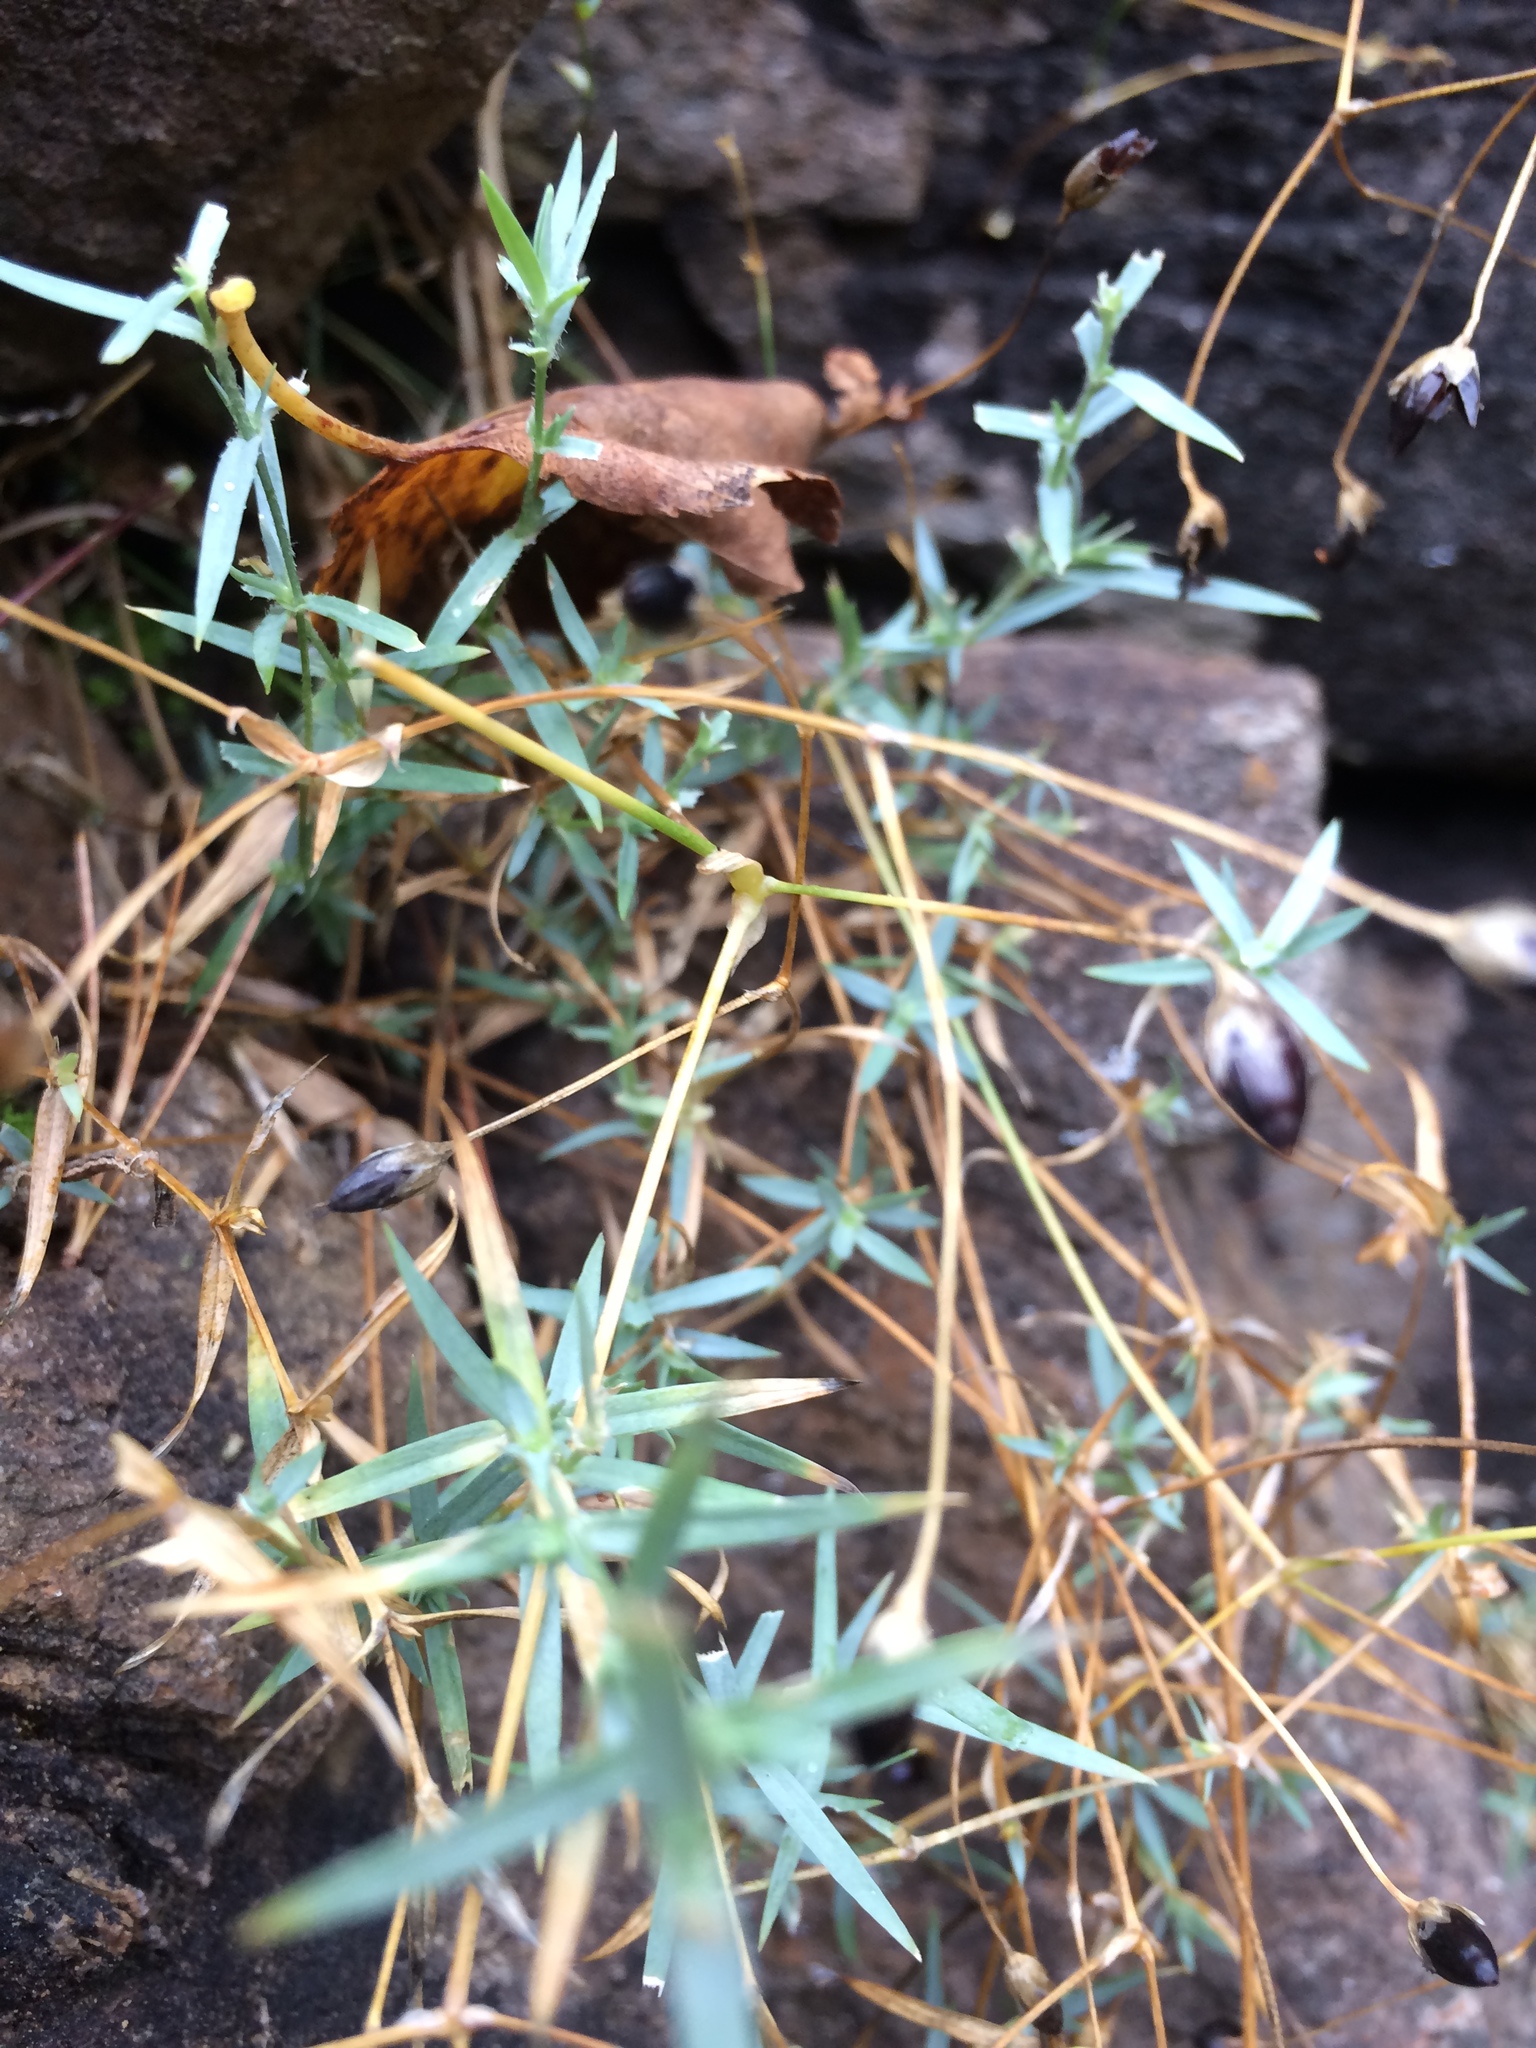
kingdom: Plantae
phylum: Tracheophyta
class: Magnoliopsida
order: Caryophyllales
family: Caryophyllaceae
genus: Stellaria
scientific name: Stellaria longipes
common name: Goldie's starwort
